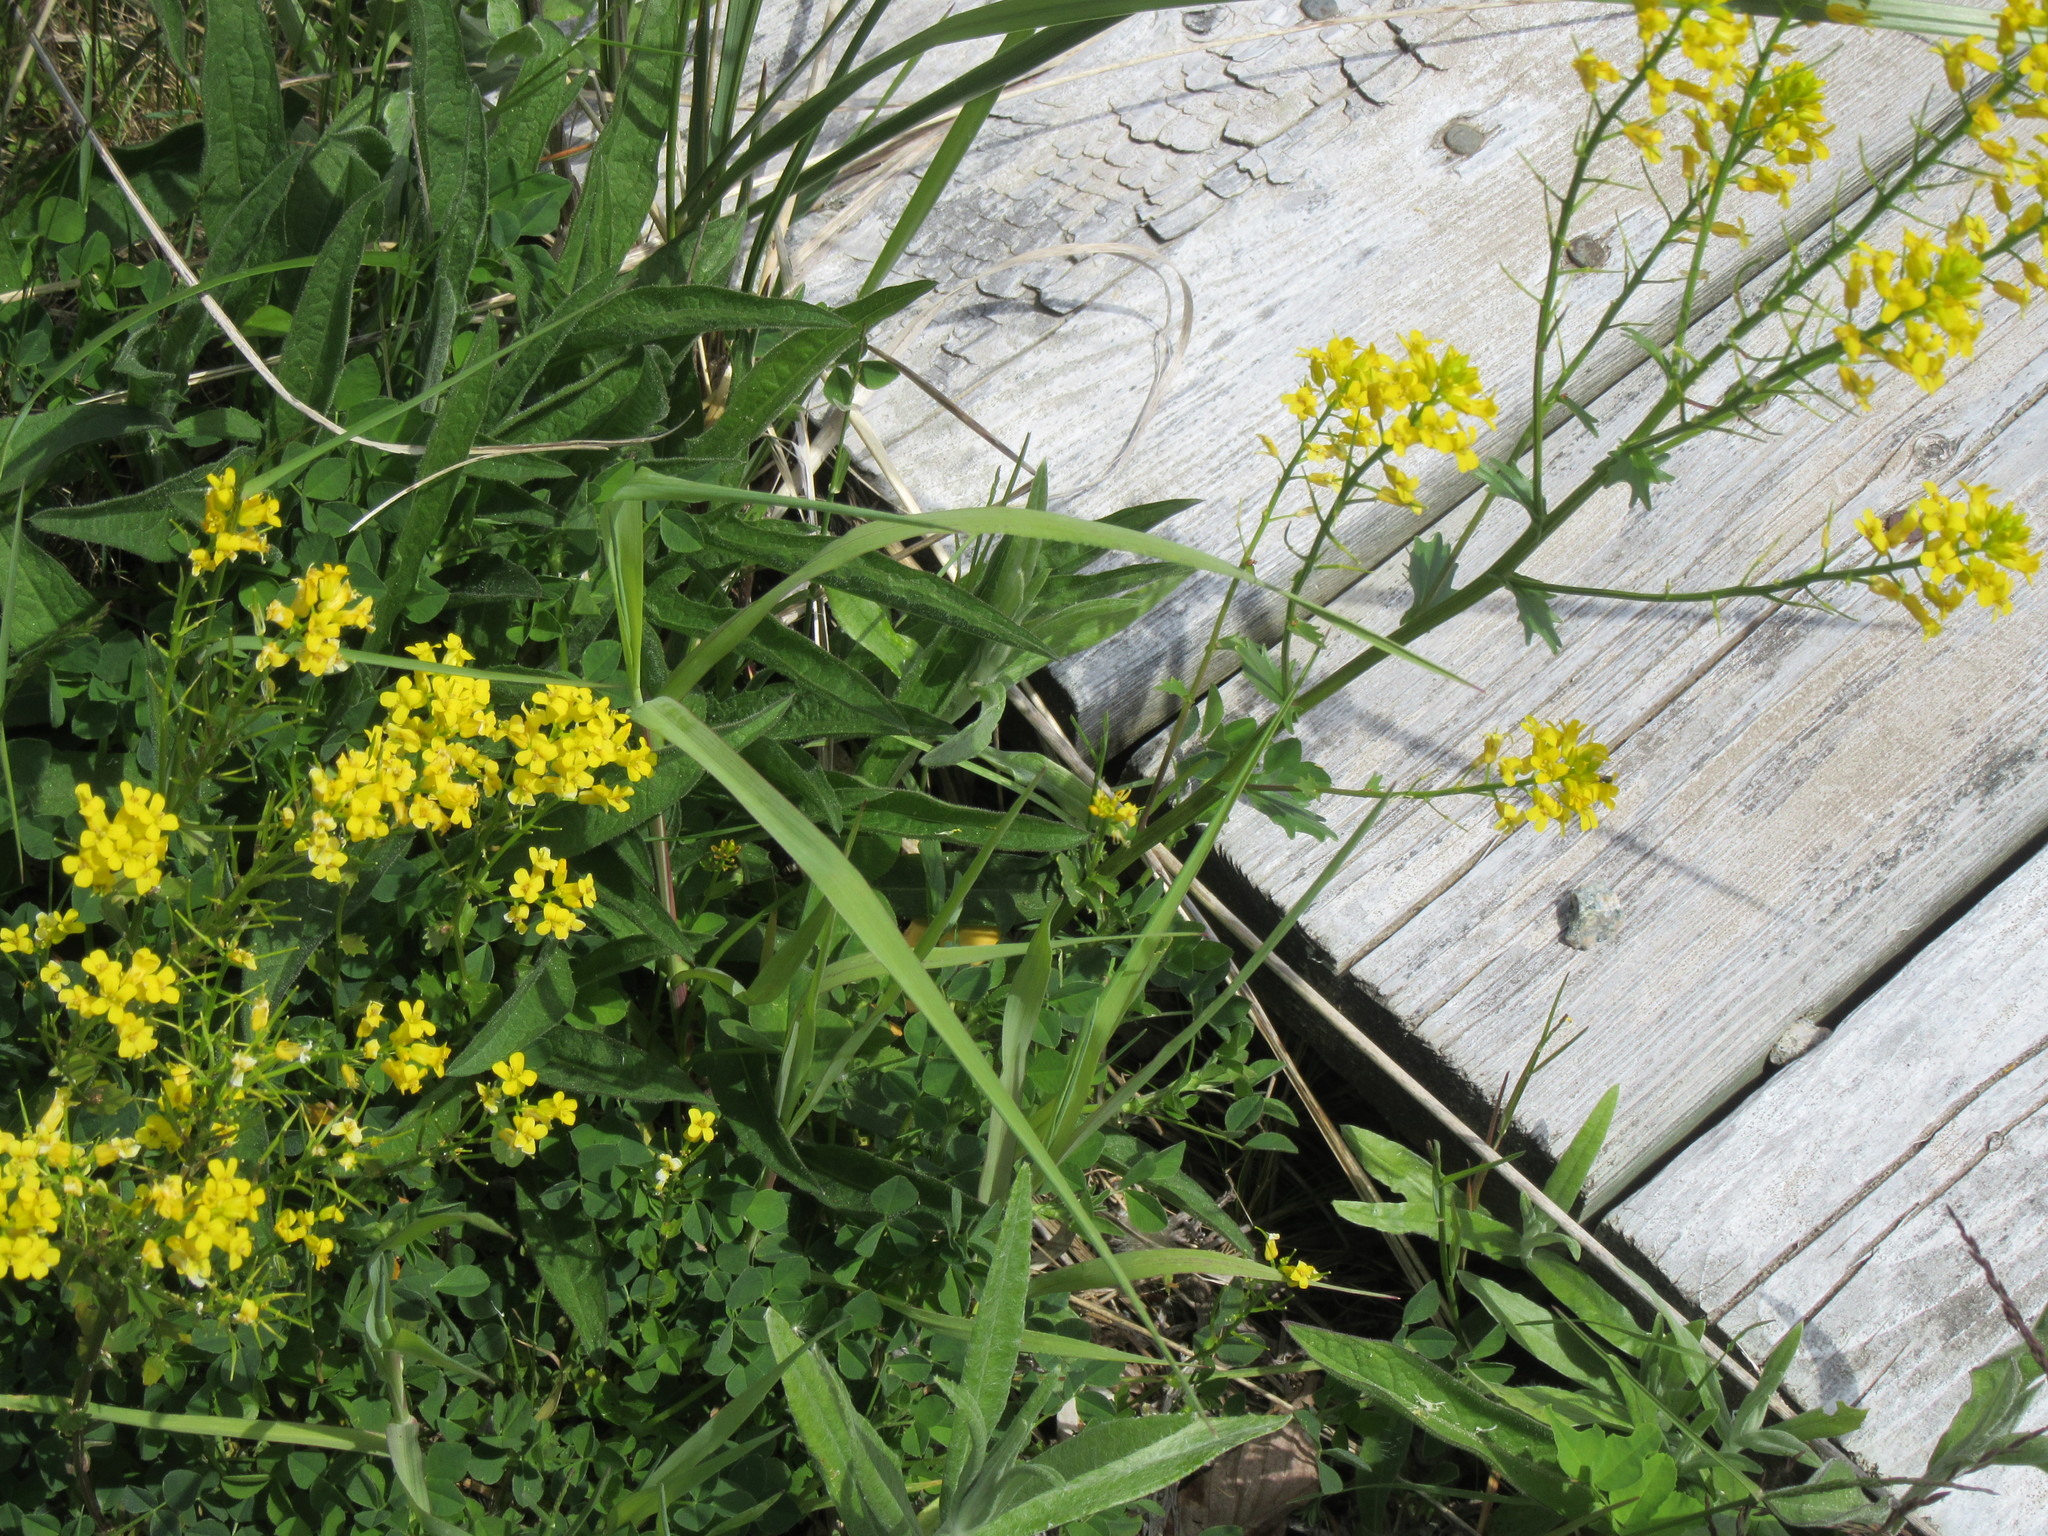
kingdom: Plantae
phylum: Tracheophyta
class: Magnoliopsida
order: Brassicales
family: Brassicaceae
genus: Barbarea
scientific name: Barbarea vulgaris
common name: Cressy-greens
